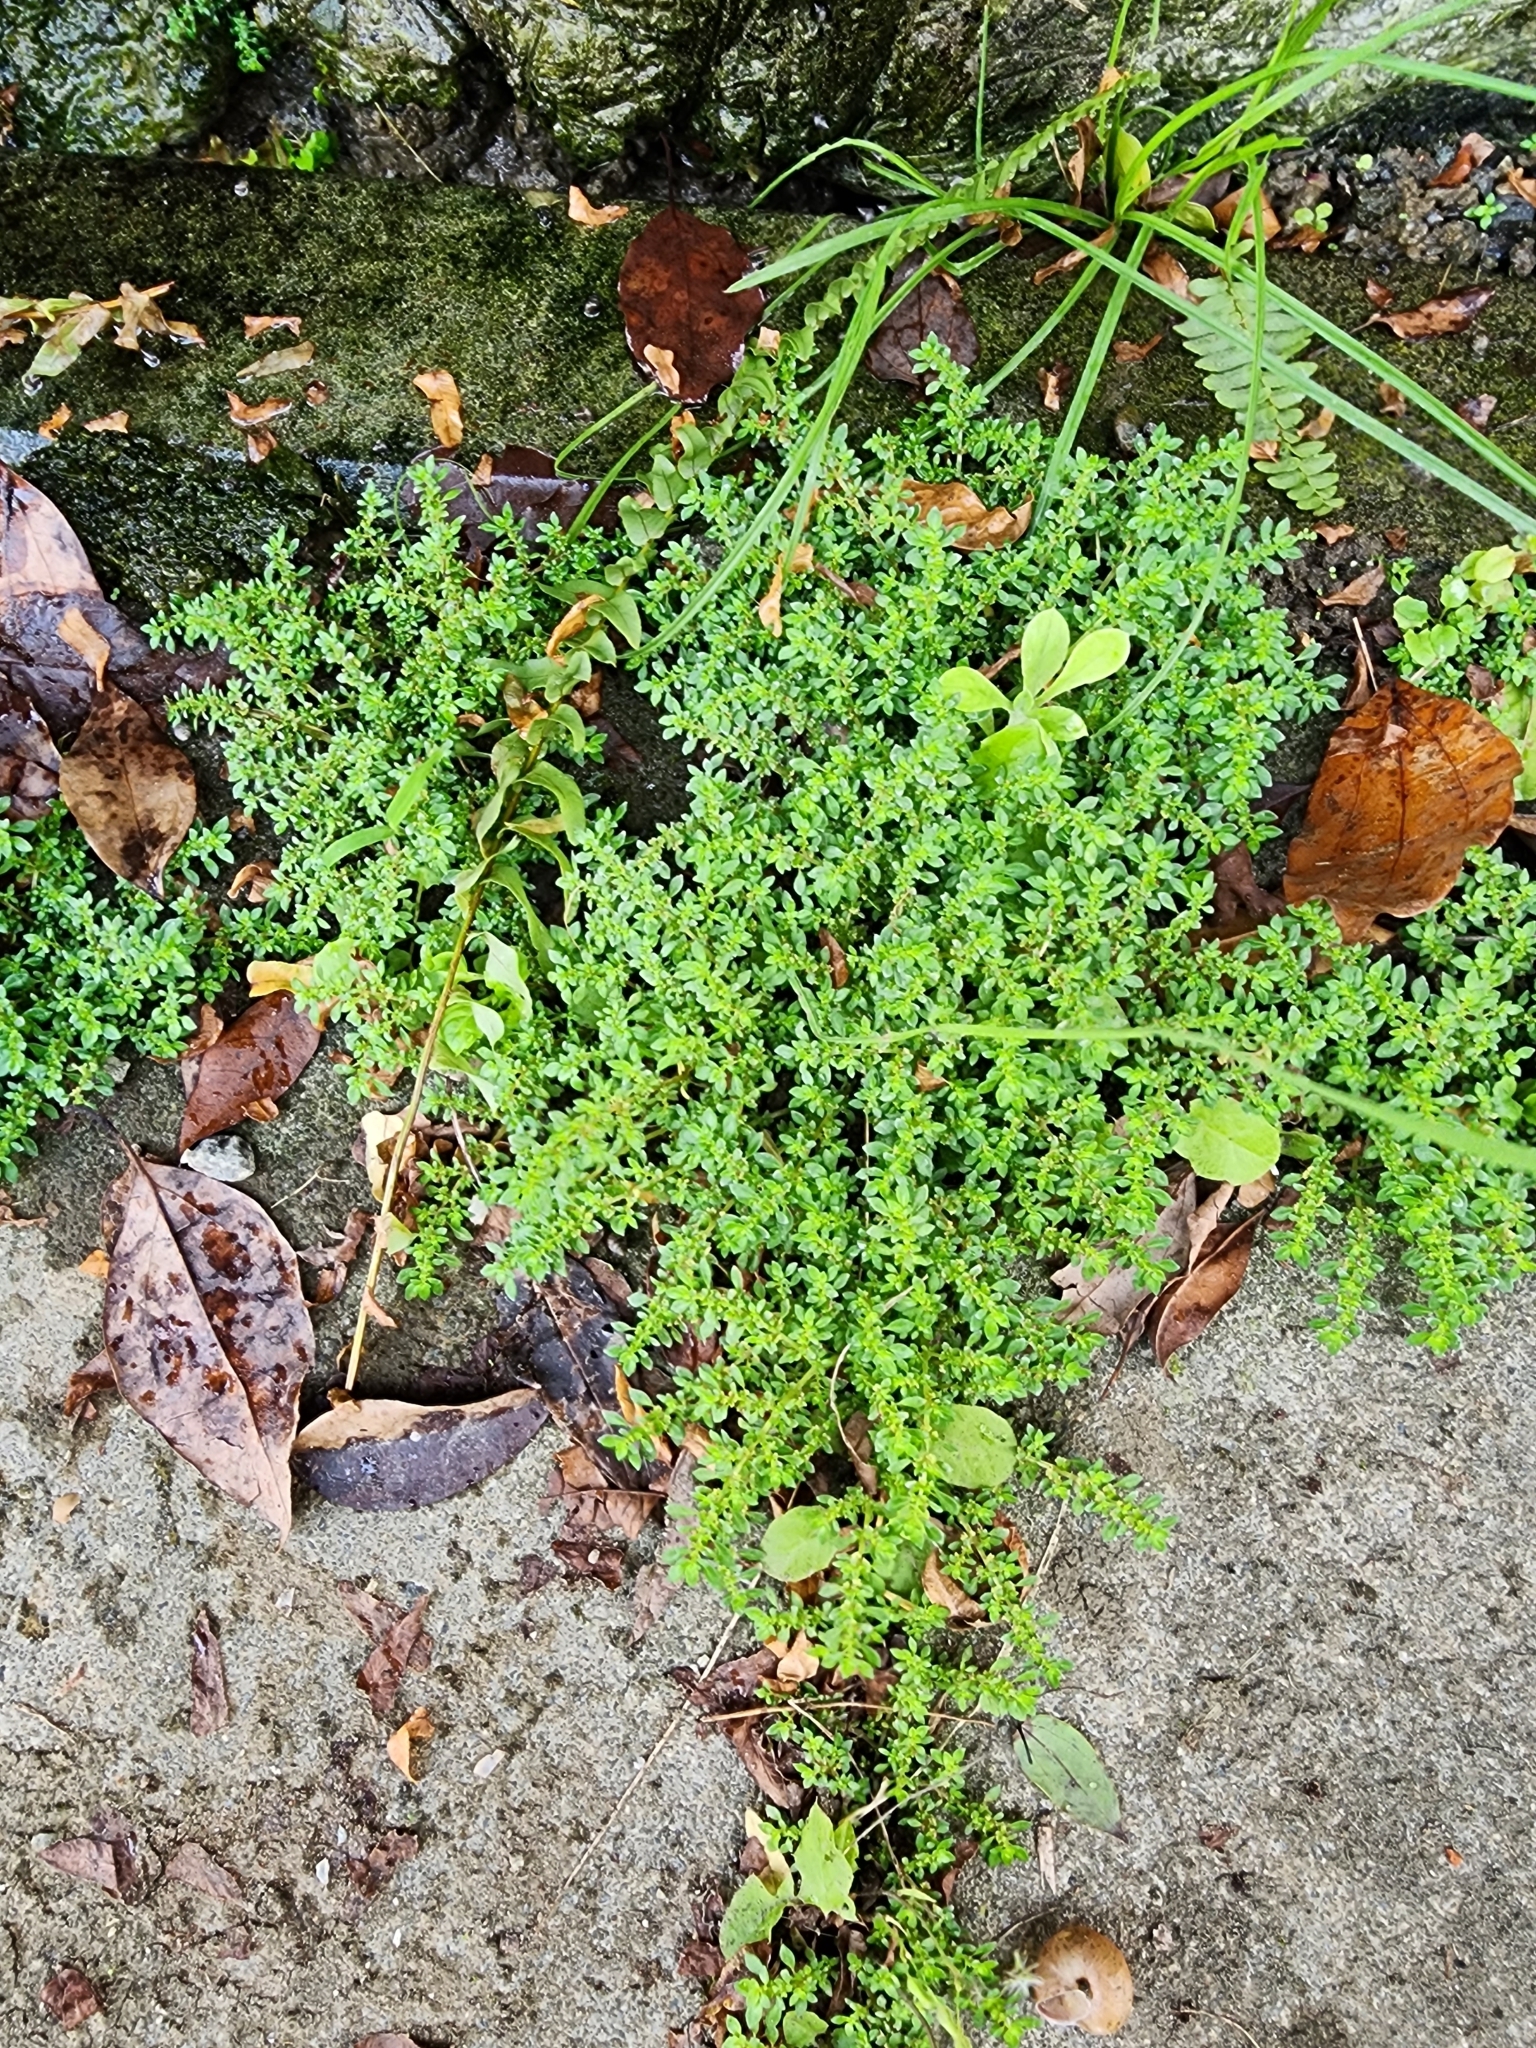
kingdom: Plantae
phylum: Tracheophyta
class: Magnoliopsida
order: Rosales
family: Urticaceae
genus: Pilea
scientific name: Pilea microphylla
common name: Artillery-plant
